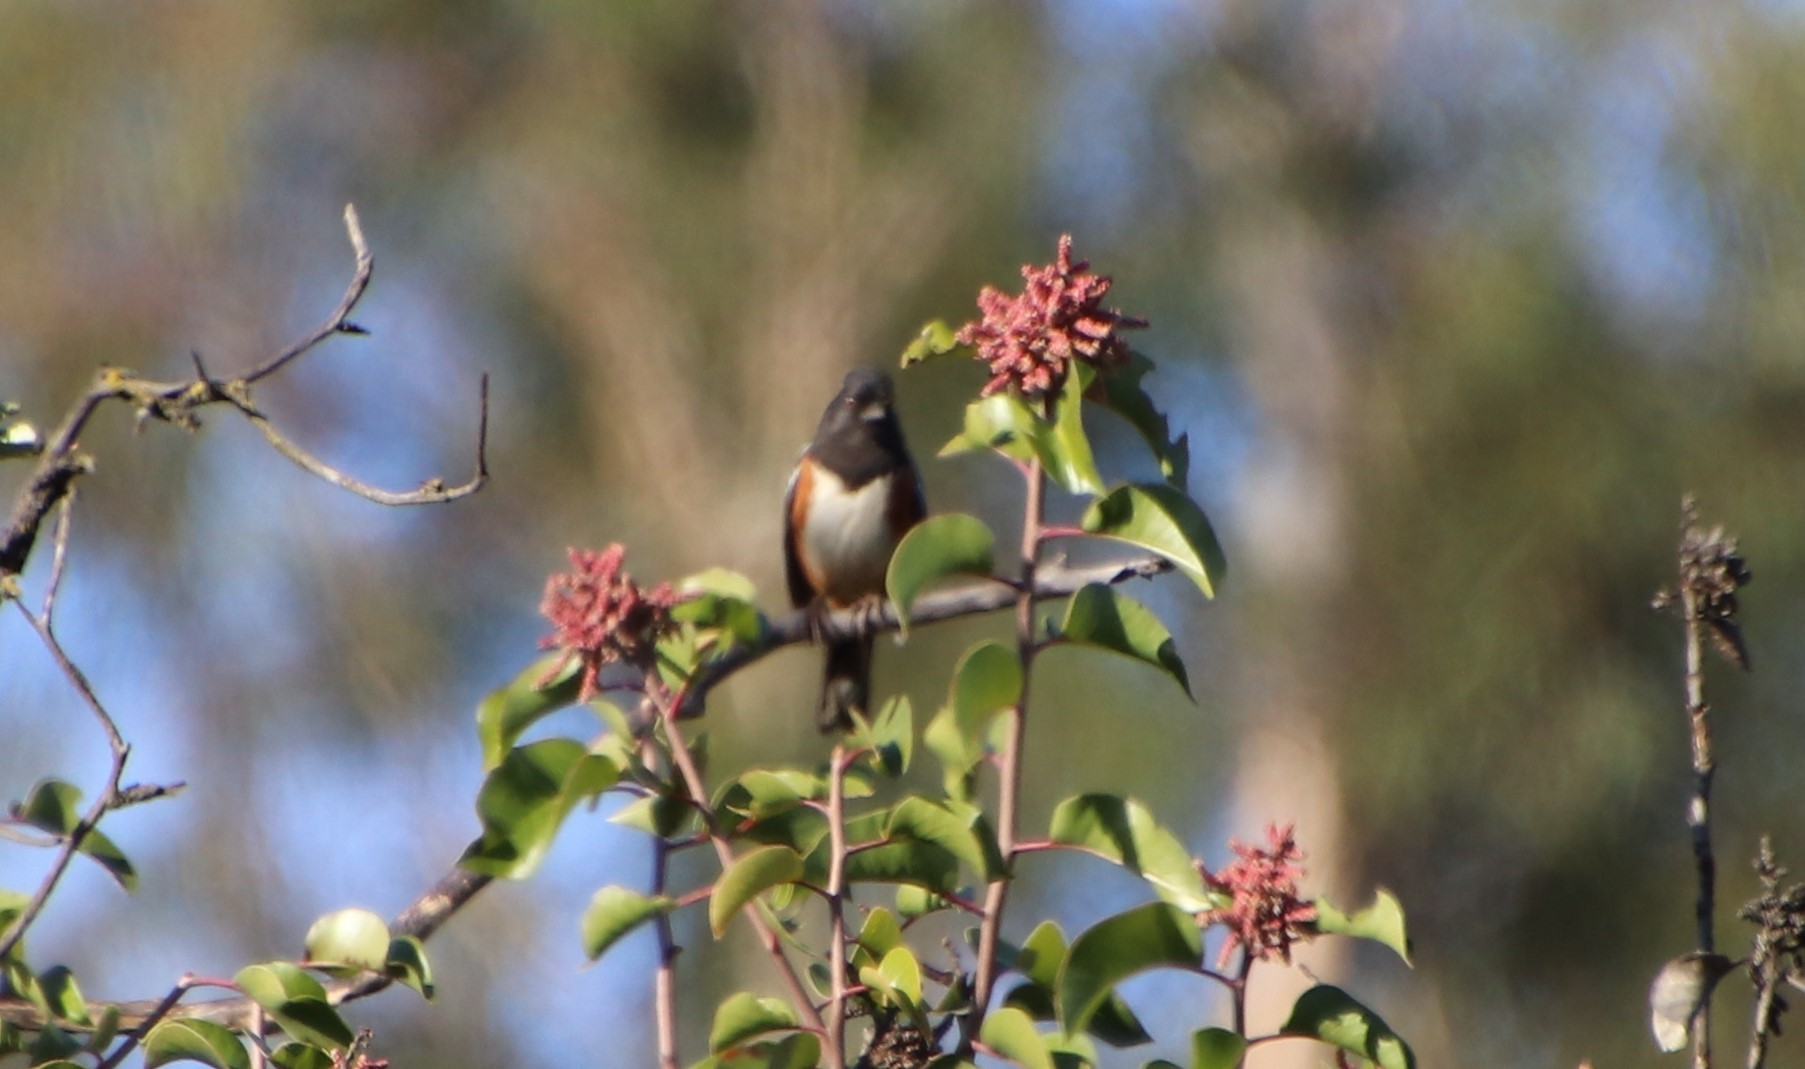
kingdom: Animalia
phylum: Chordata
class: Aves
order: Passeriformes
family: Passerellidae
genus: Pipilo
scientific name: Pipilo maculatus
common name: Spotted towhee
